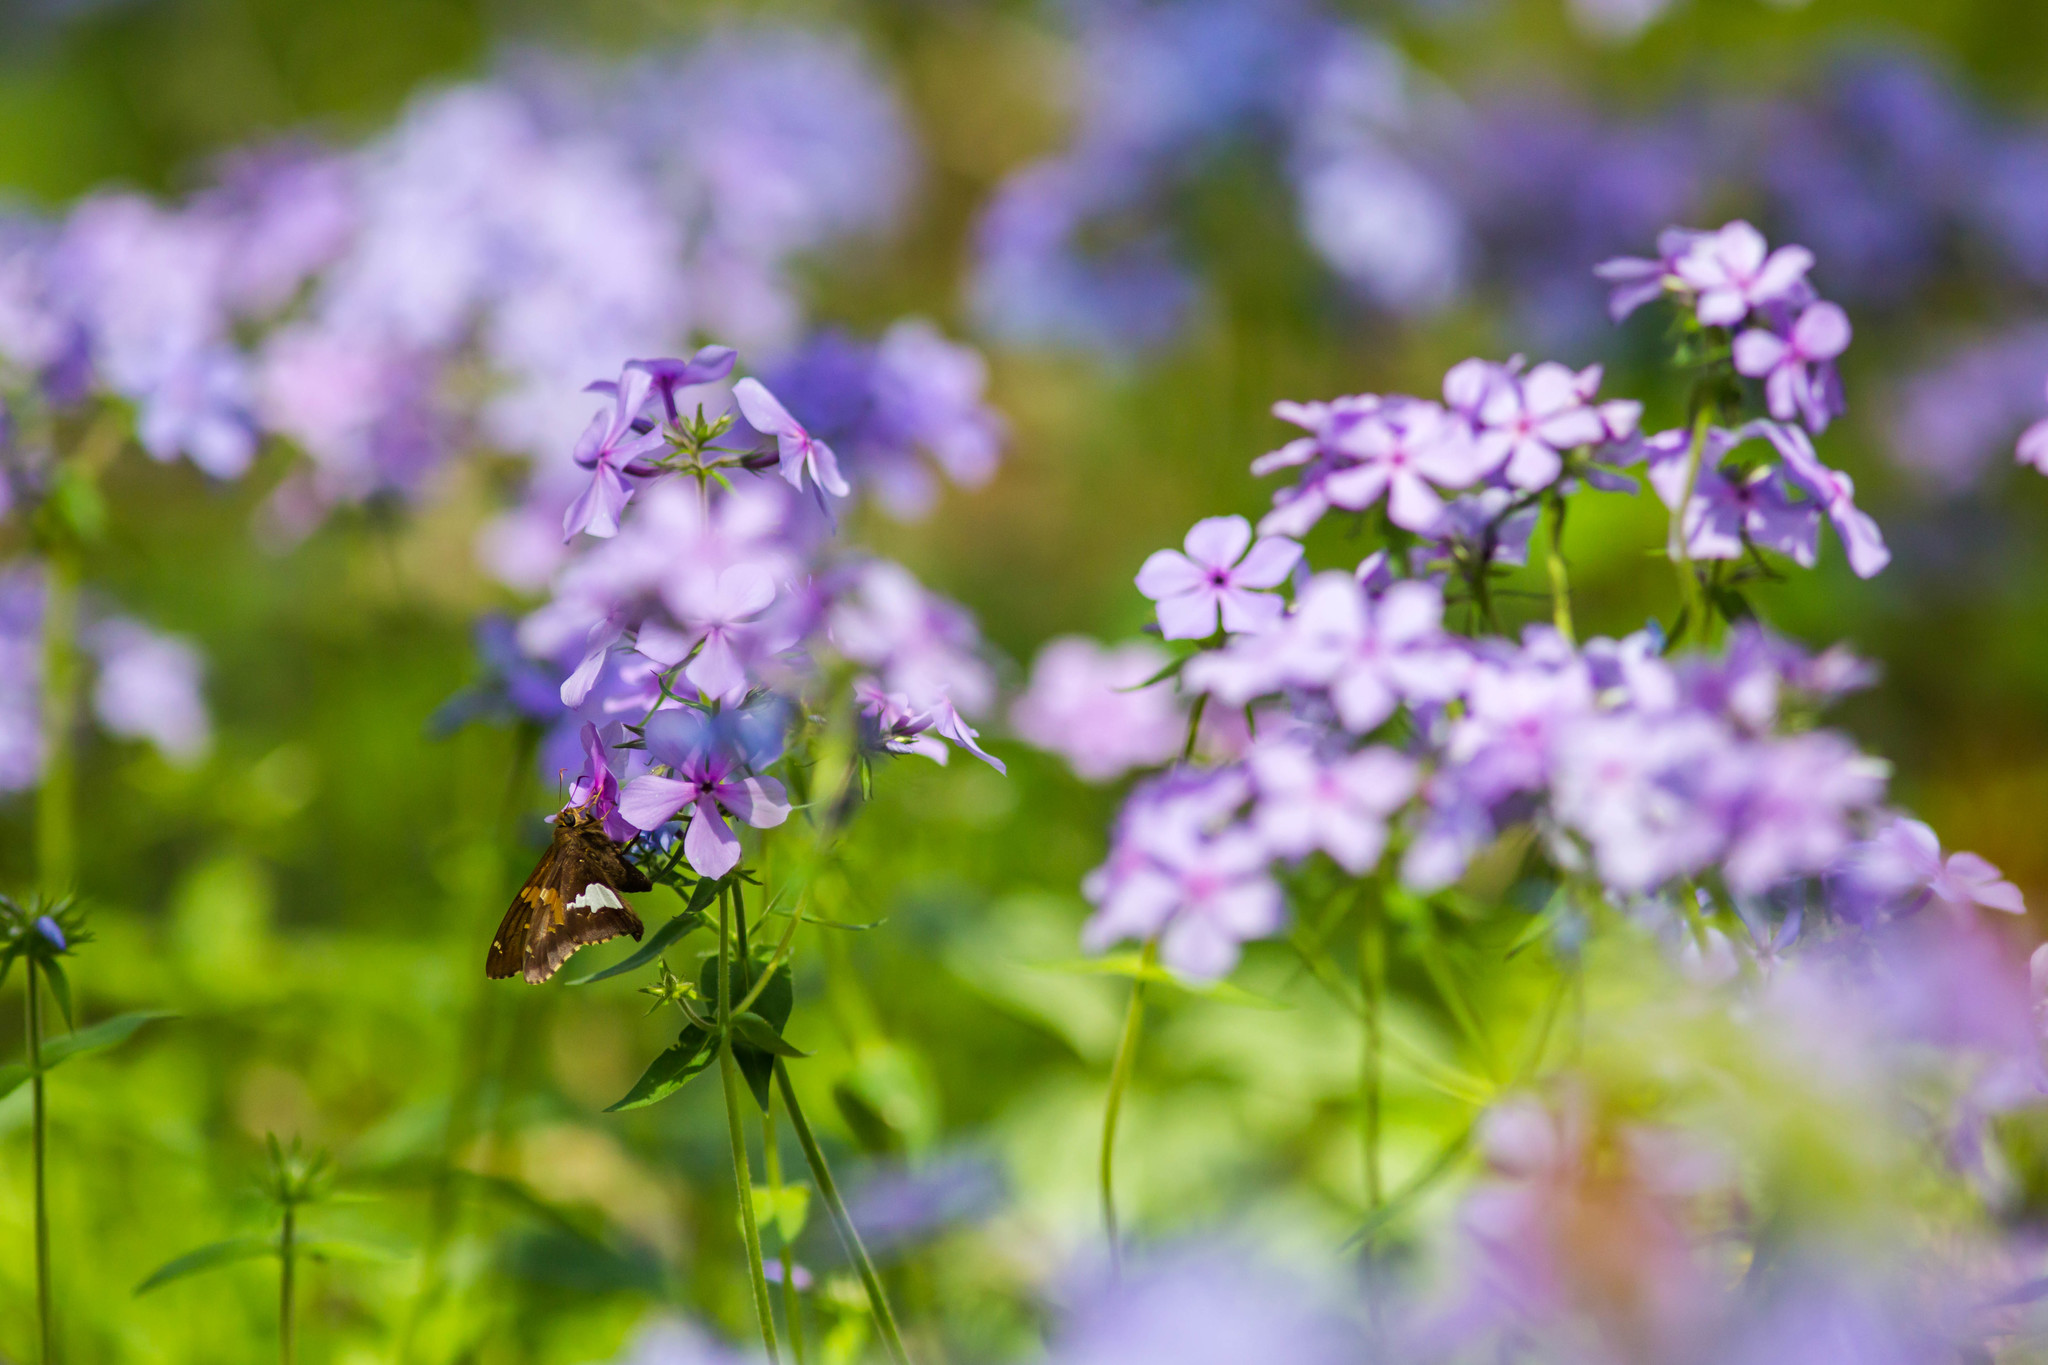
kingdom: Animalia
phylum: Arthropoda
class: Insecta
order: Lepidoptera
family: Hesperiidae
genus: Epargyreus
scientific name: Epargyreus clarus
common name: Silver-spotted skipper
